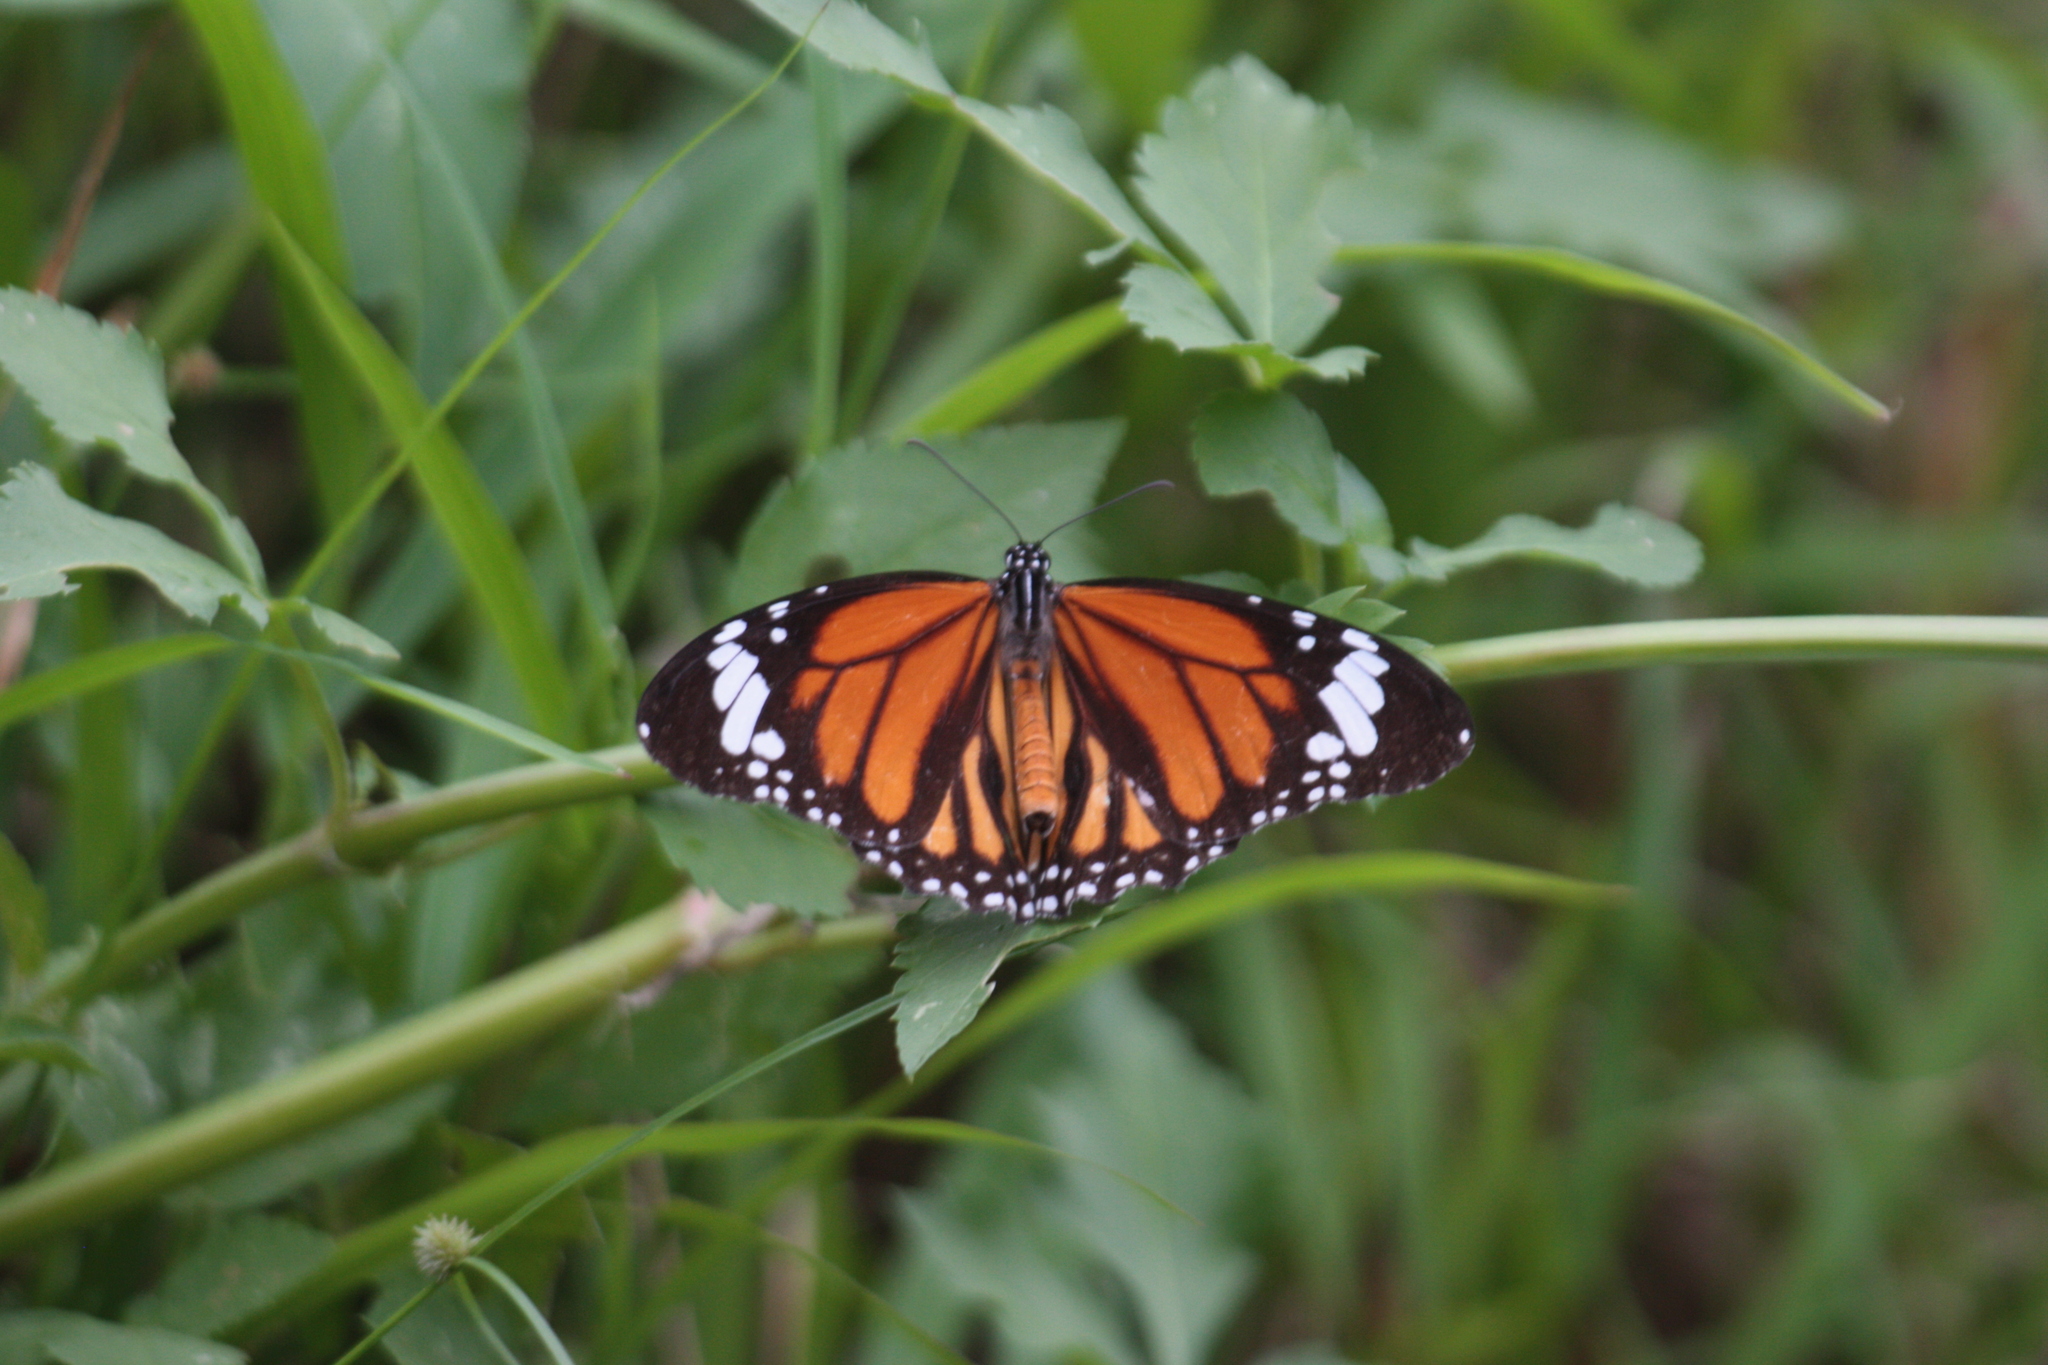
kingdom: Animalia
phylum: Arthropoda
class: Insecta
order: Lepidoptera
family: Nymphalidae
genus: Danaus
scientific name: Danaus genutia
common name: Common tiger butterfly
